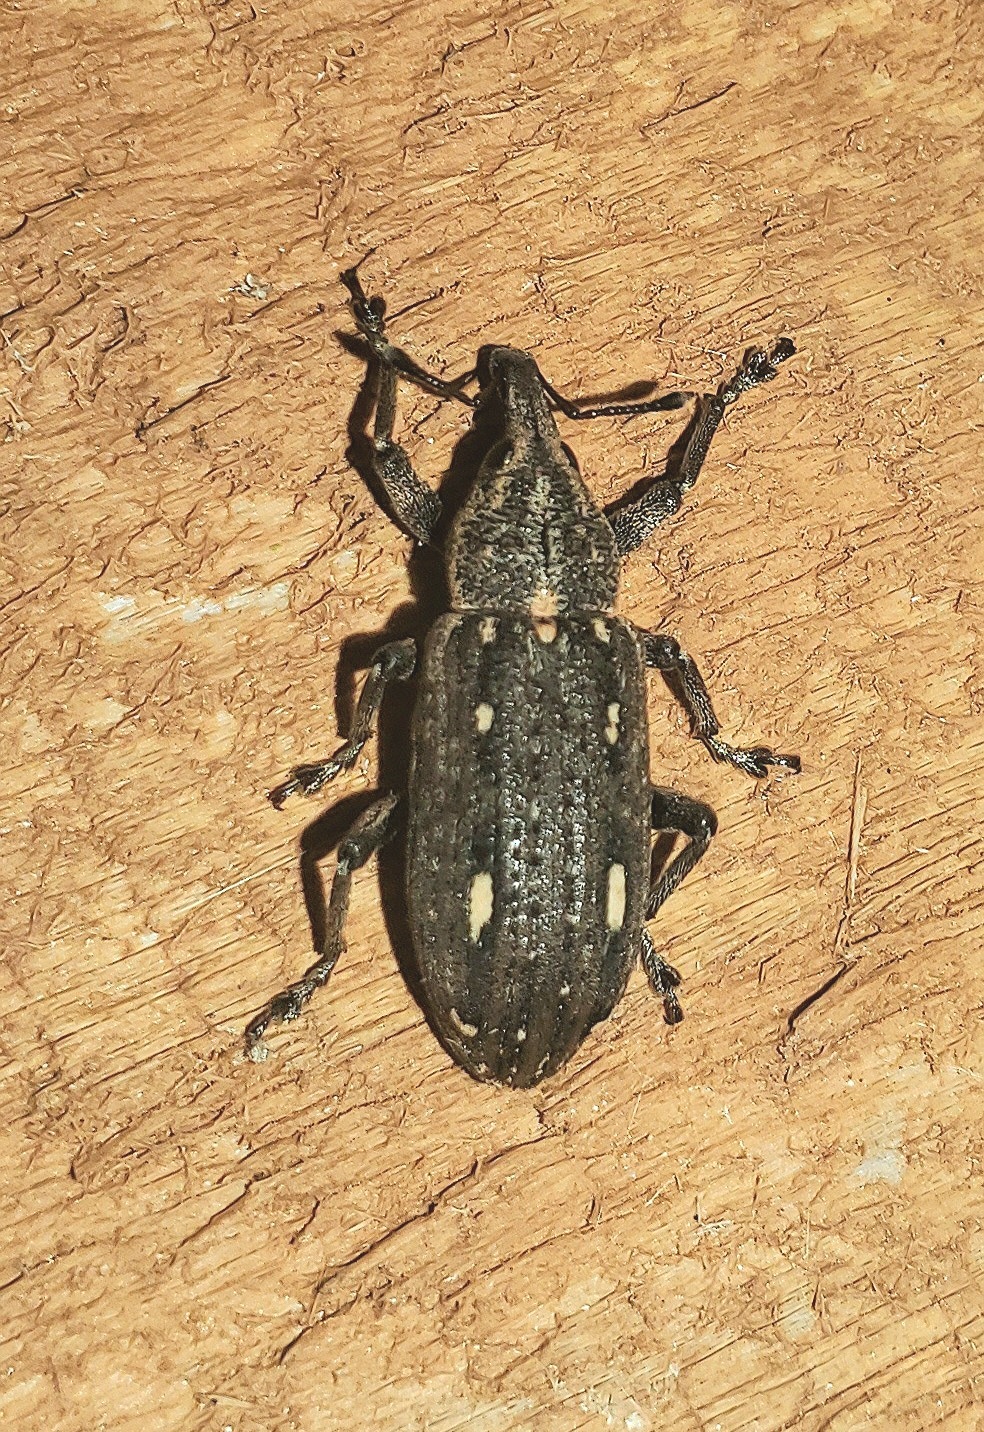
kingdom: Animalia
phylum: Arthropoda
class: Insecta
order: Coleoptera
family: Curculionidae
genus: Eudociminus
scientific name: Eudociminus mannerheimi
